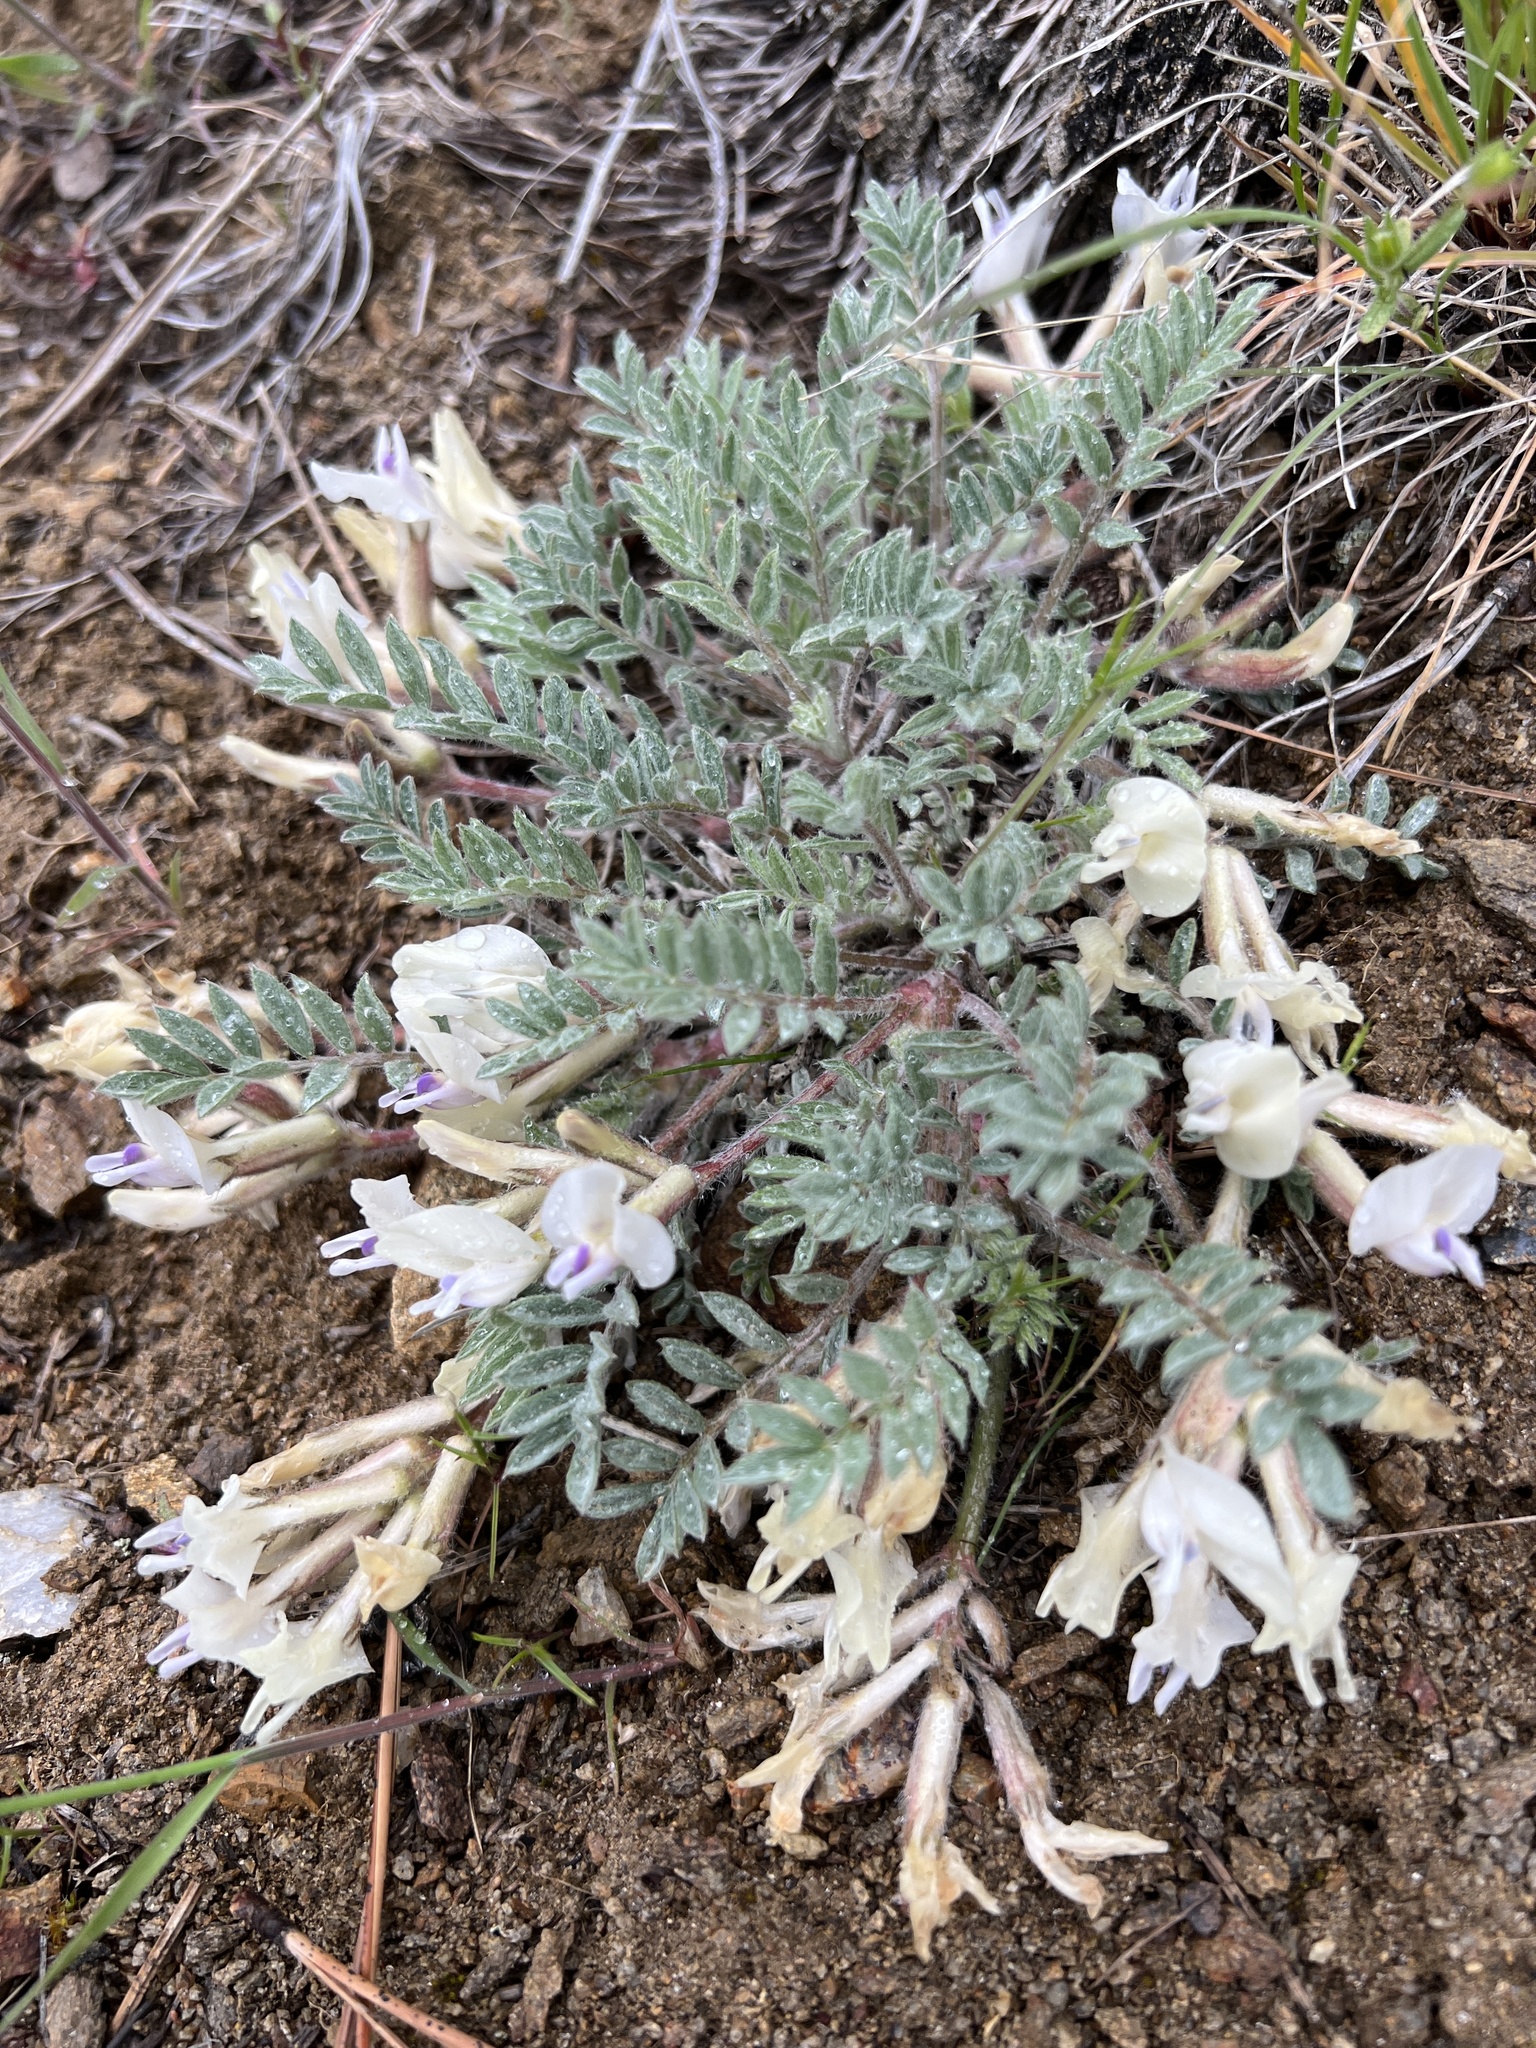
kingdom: Plantae
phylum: Tracheophyta
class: Magnoliopsida
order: Fabales
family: Fabaceae
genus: Astragalus
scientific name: Astragalus purshii
